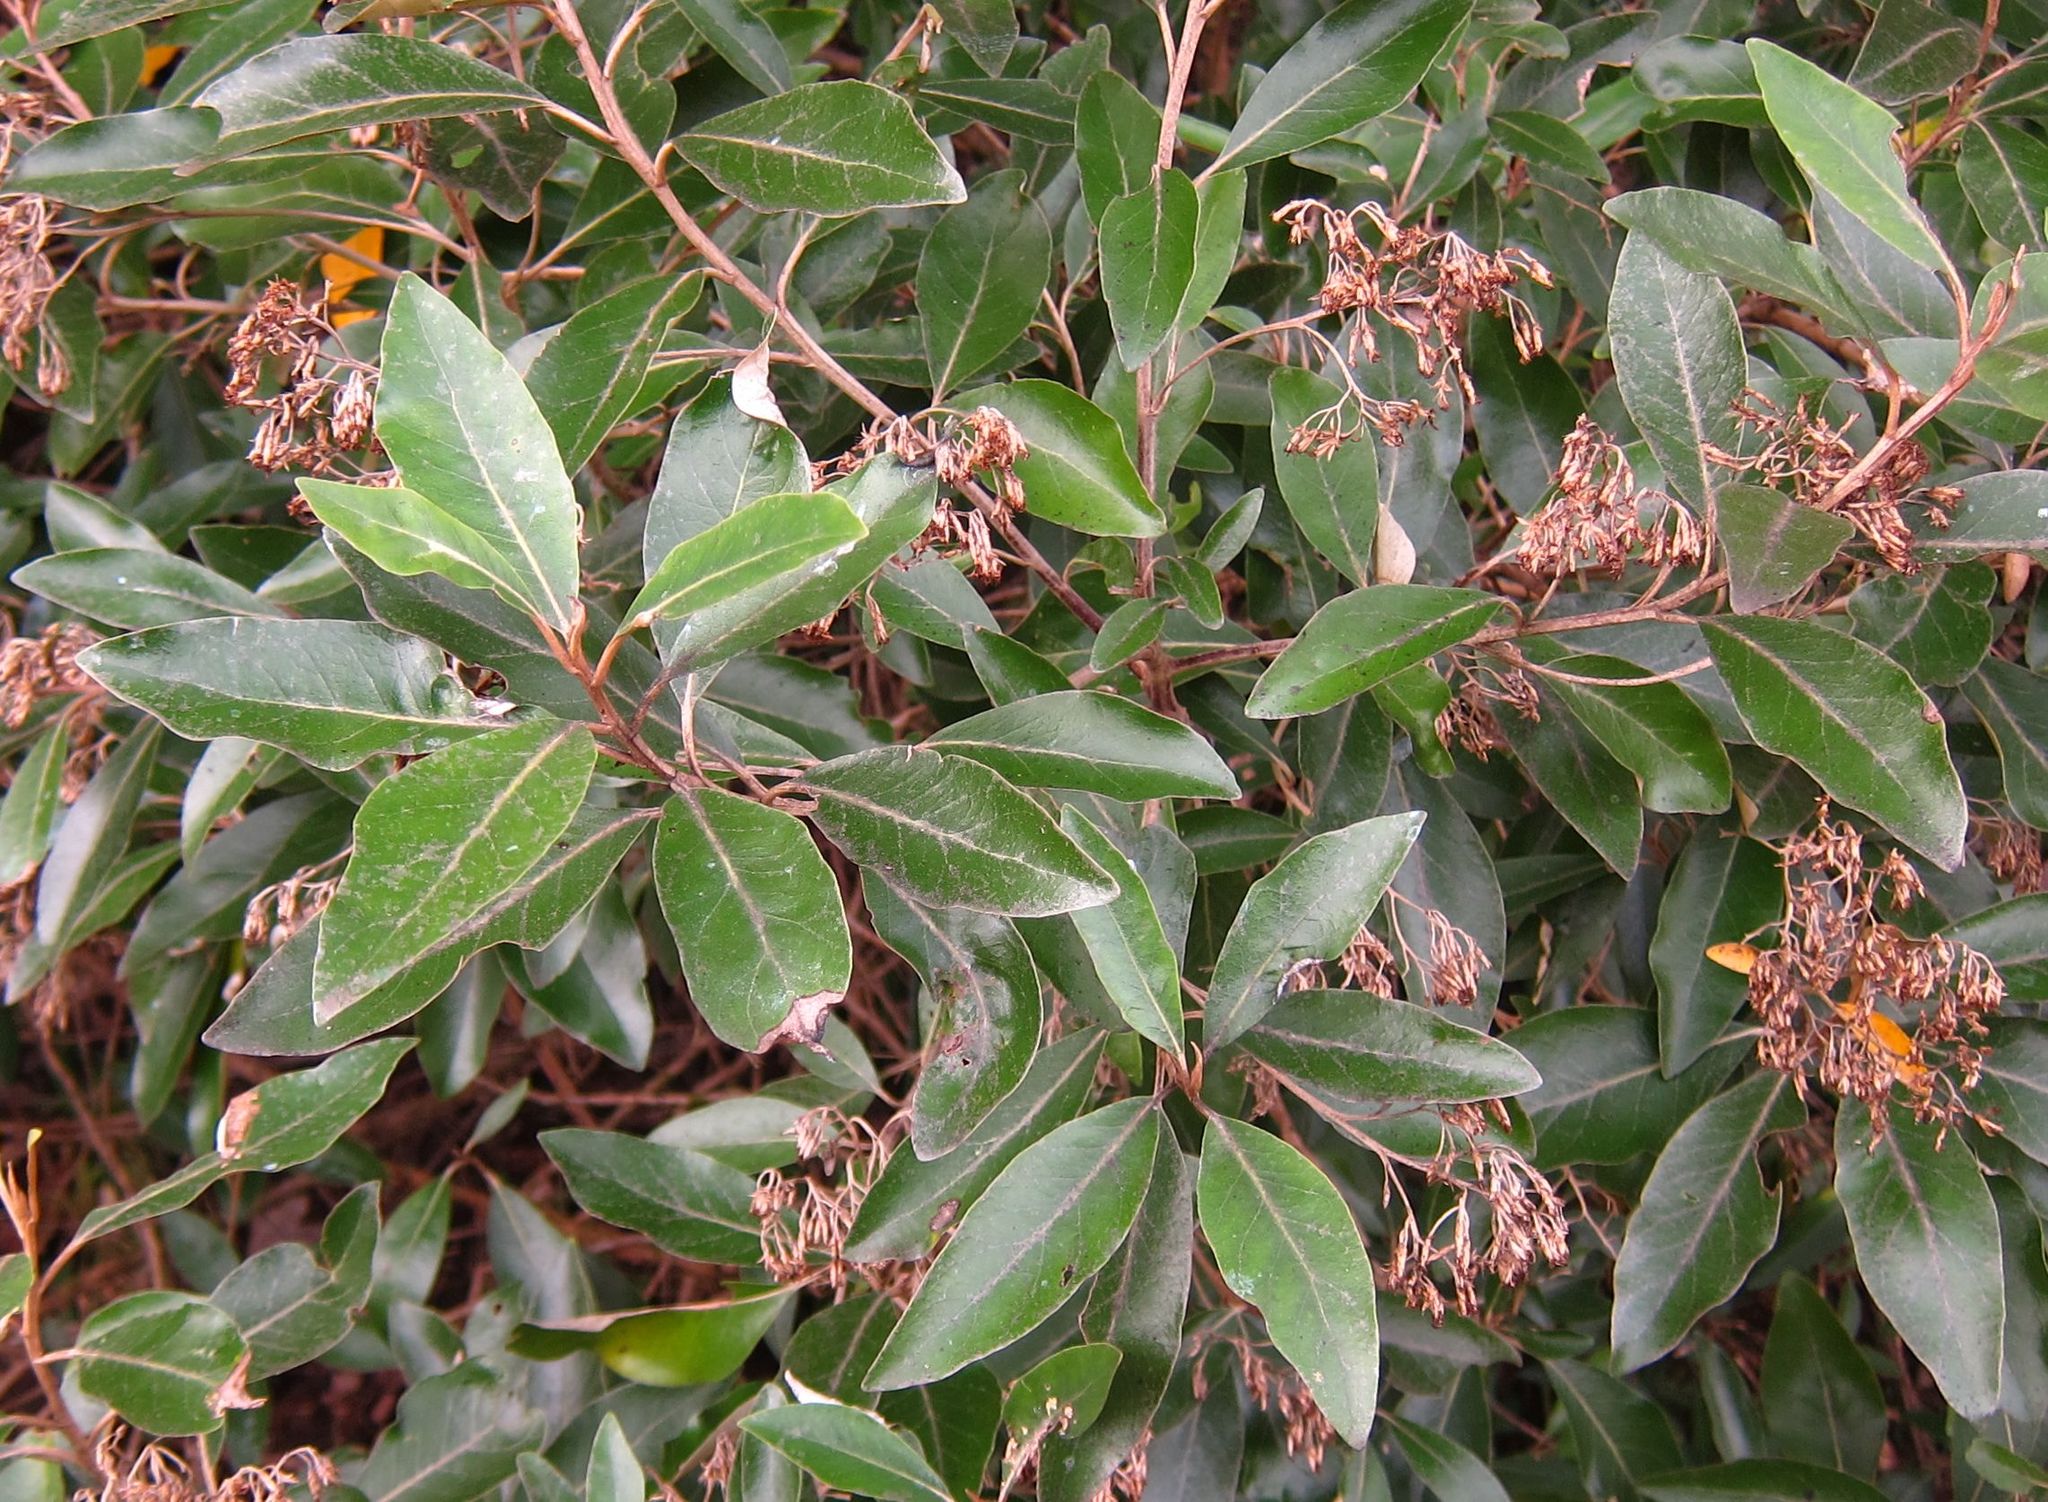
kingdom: Plantae
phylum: Tracheophyta
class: Magnoliopsida
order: Asterales
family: Asteraceae
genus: Olearia
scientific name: Olearia avicenniifolia
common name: Mangrove-leaf daisybush
